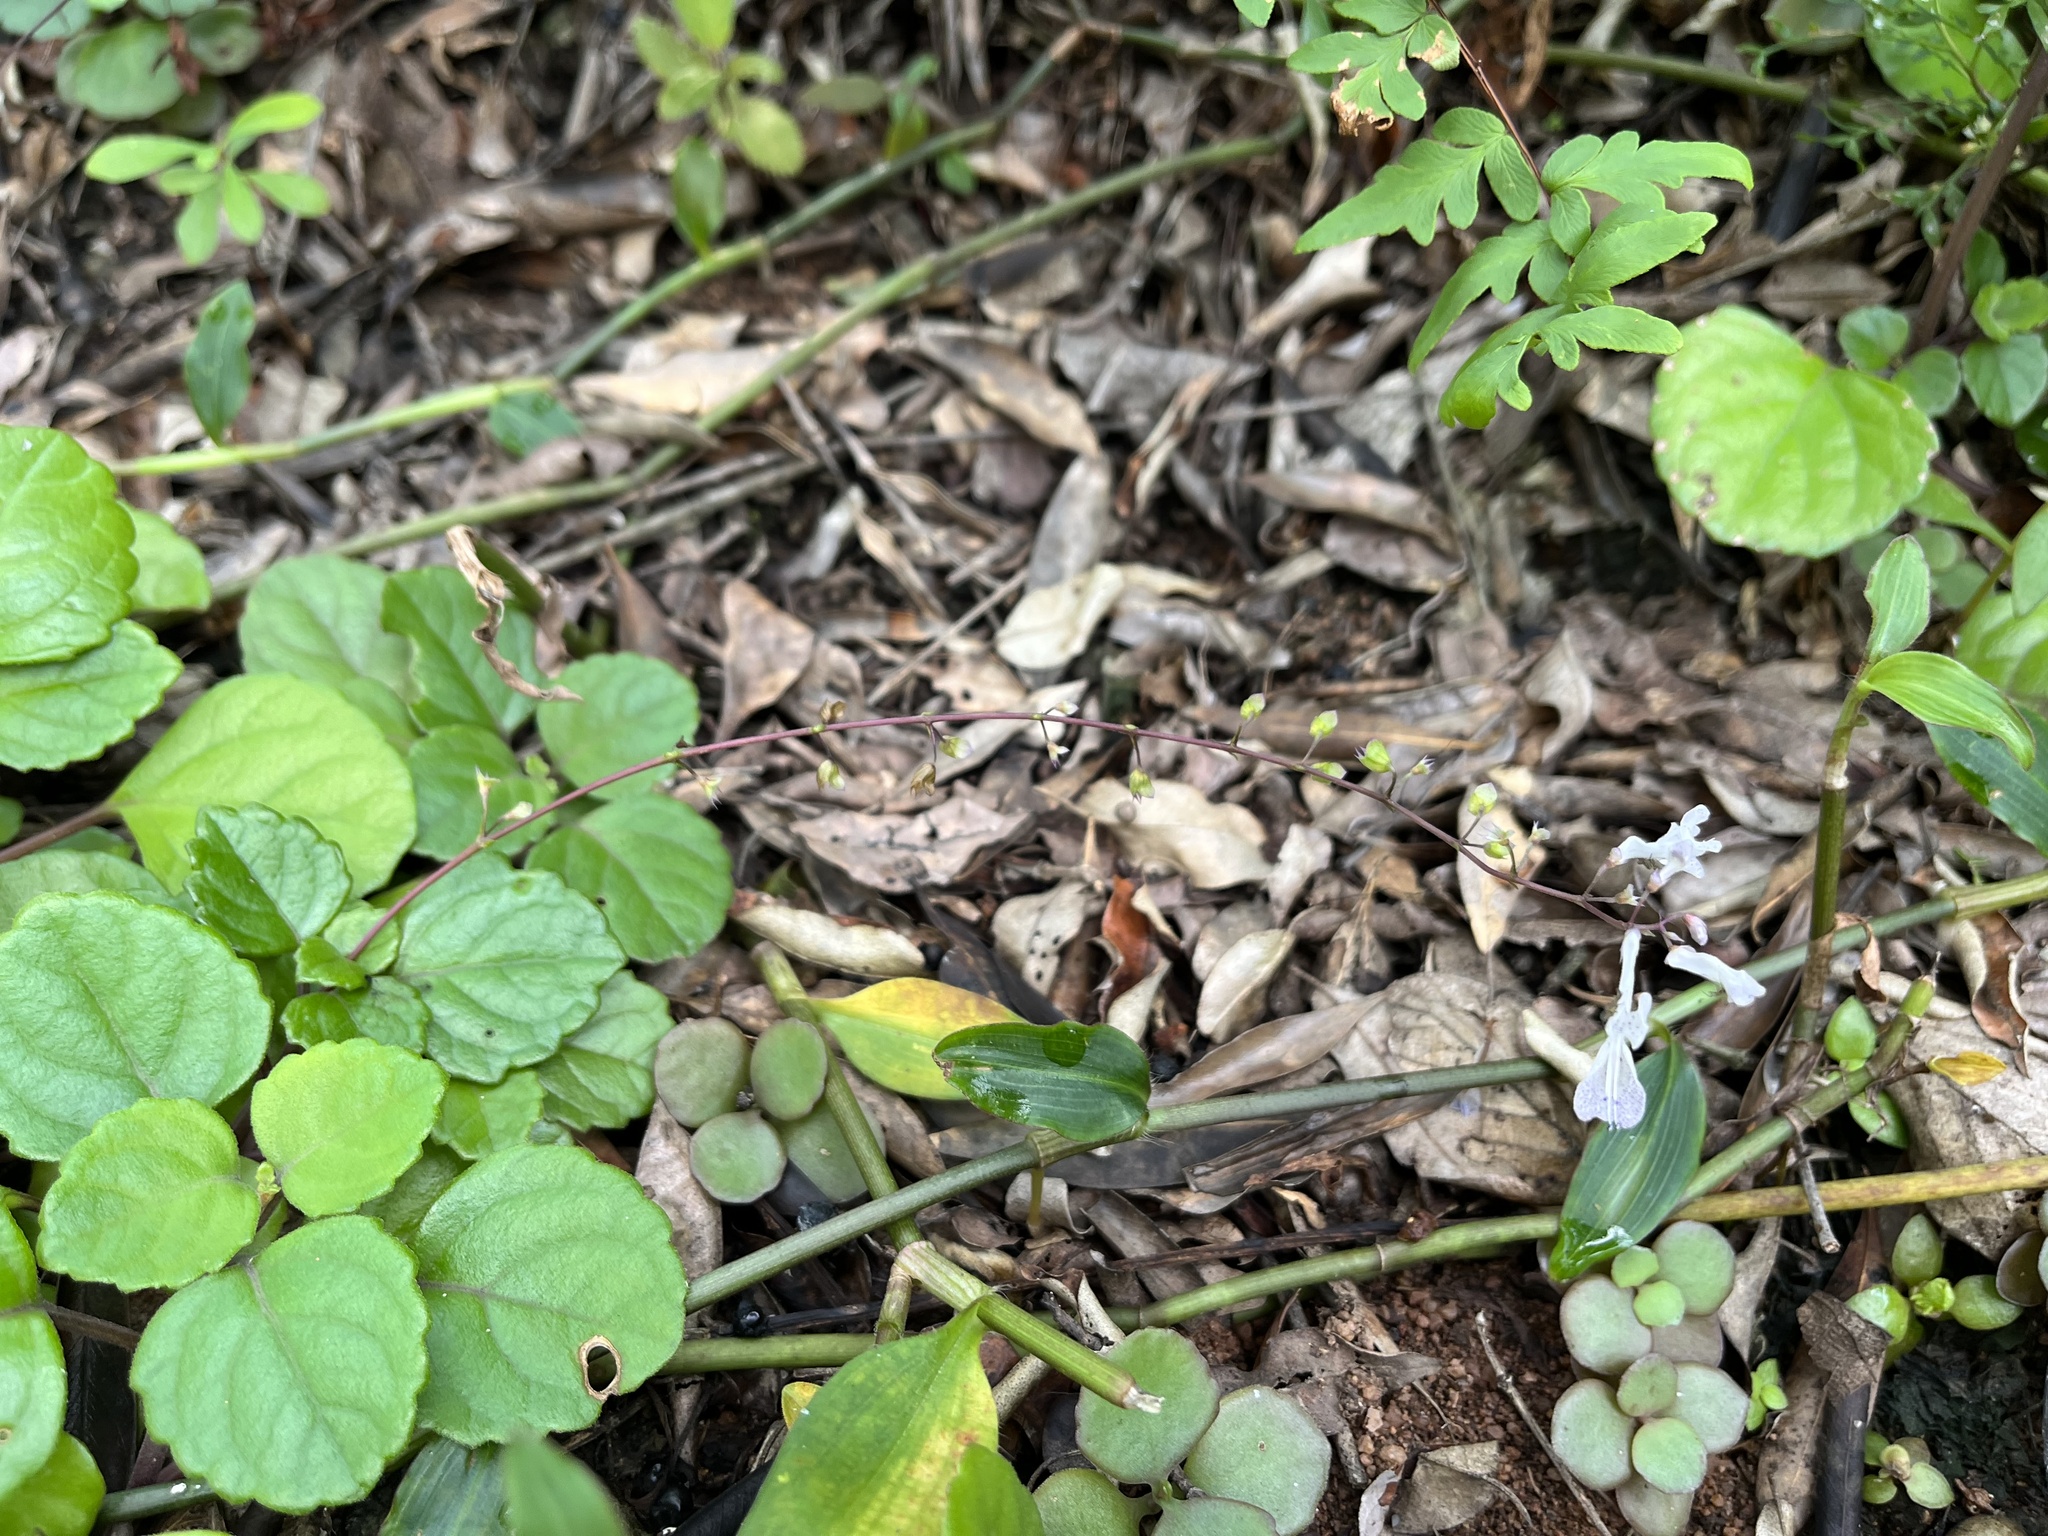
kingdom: Plantae
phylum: Tracheophyta
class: Magnoliopsida
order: Lamiales
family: Lamiaceae
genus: Plectranthus
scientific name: Plectranthus verticillatus
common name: Whorled plectranthus
